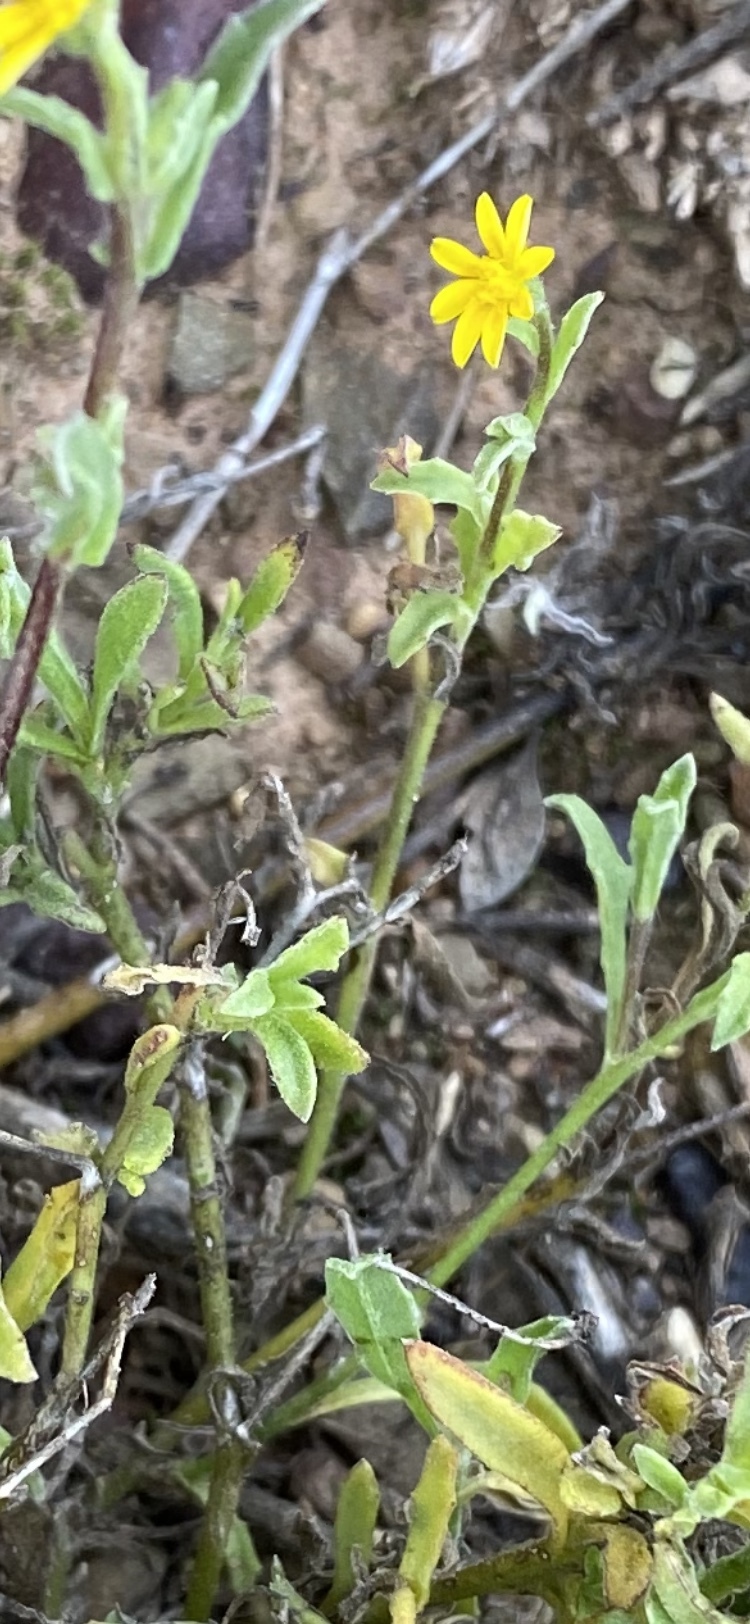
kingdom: Plantae
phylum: Tracheophyta
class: Magnoliopsida
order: Asterales
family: Asteraceae
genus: Osteospermum
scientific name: Osteospermum calendulaceum
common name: Stinking roger
